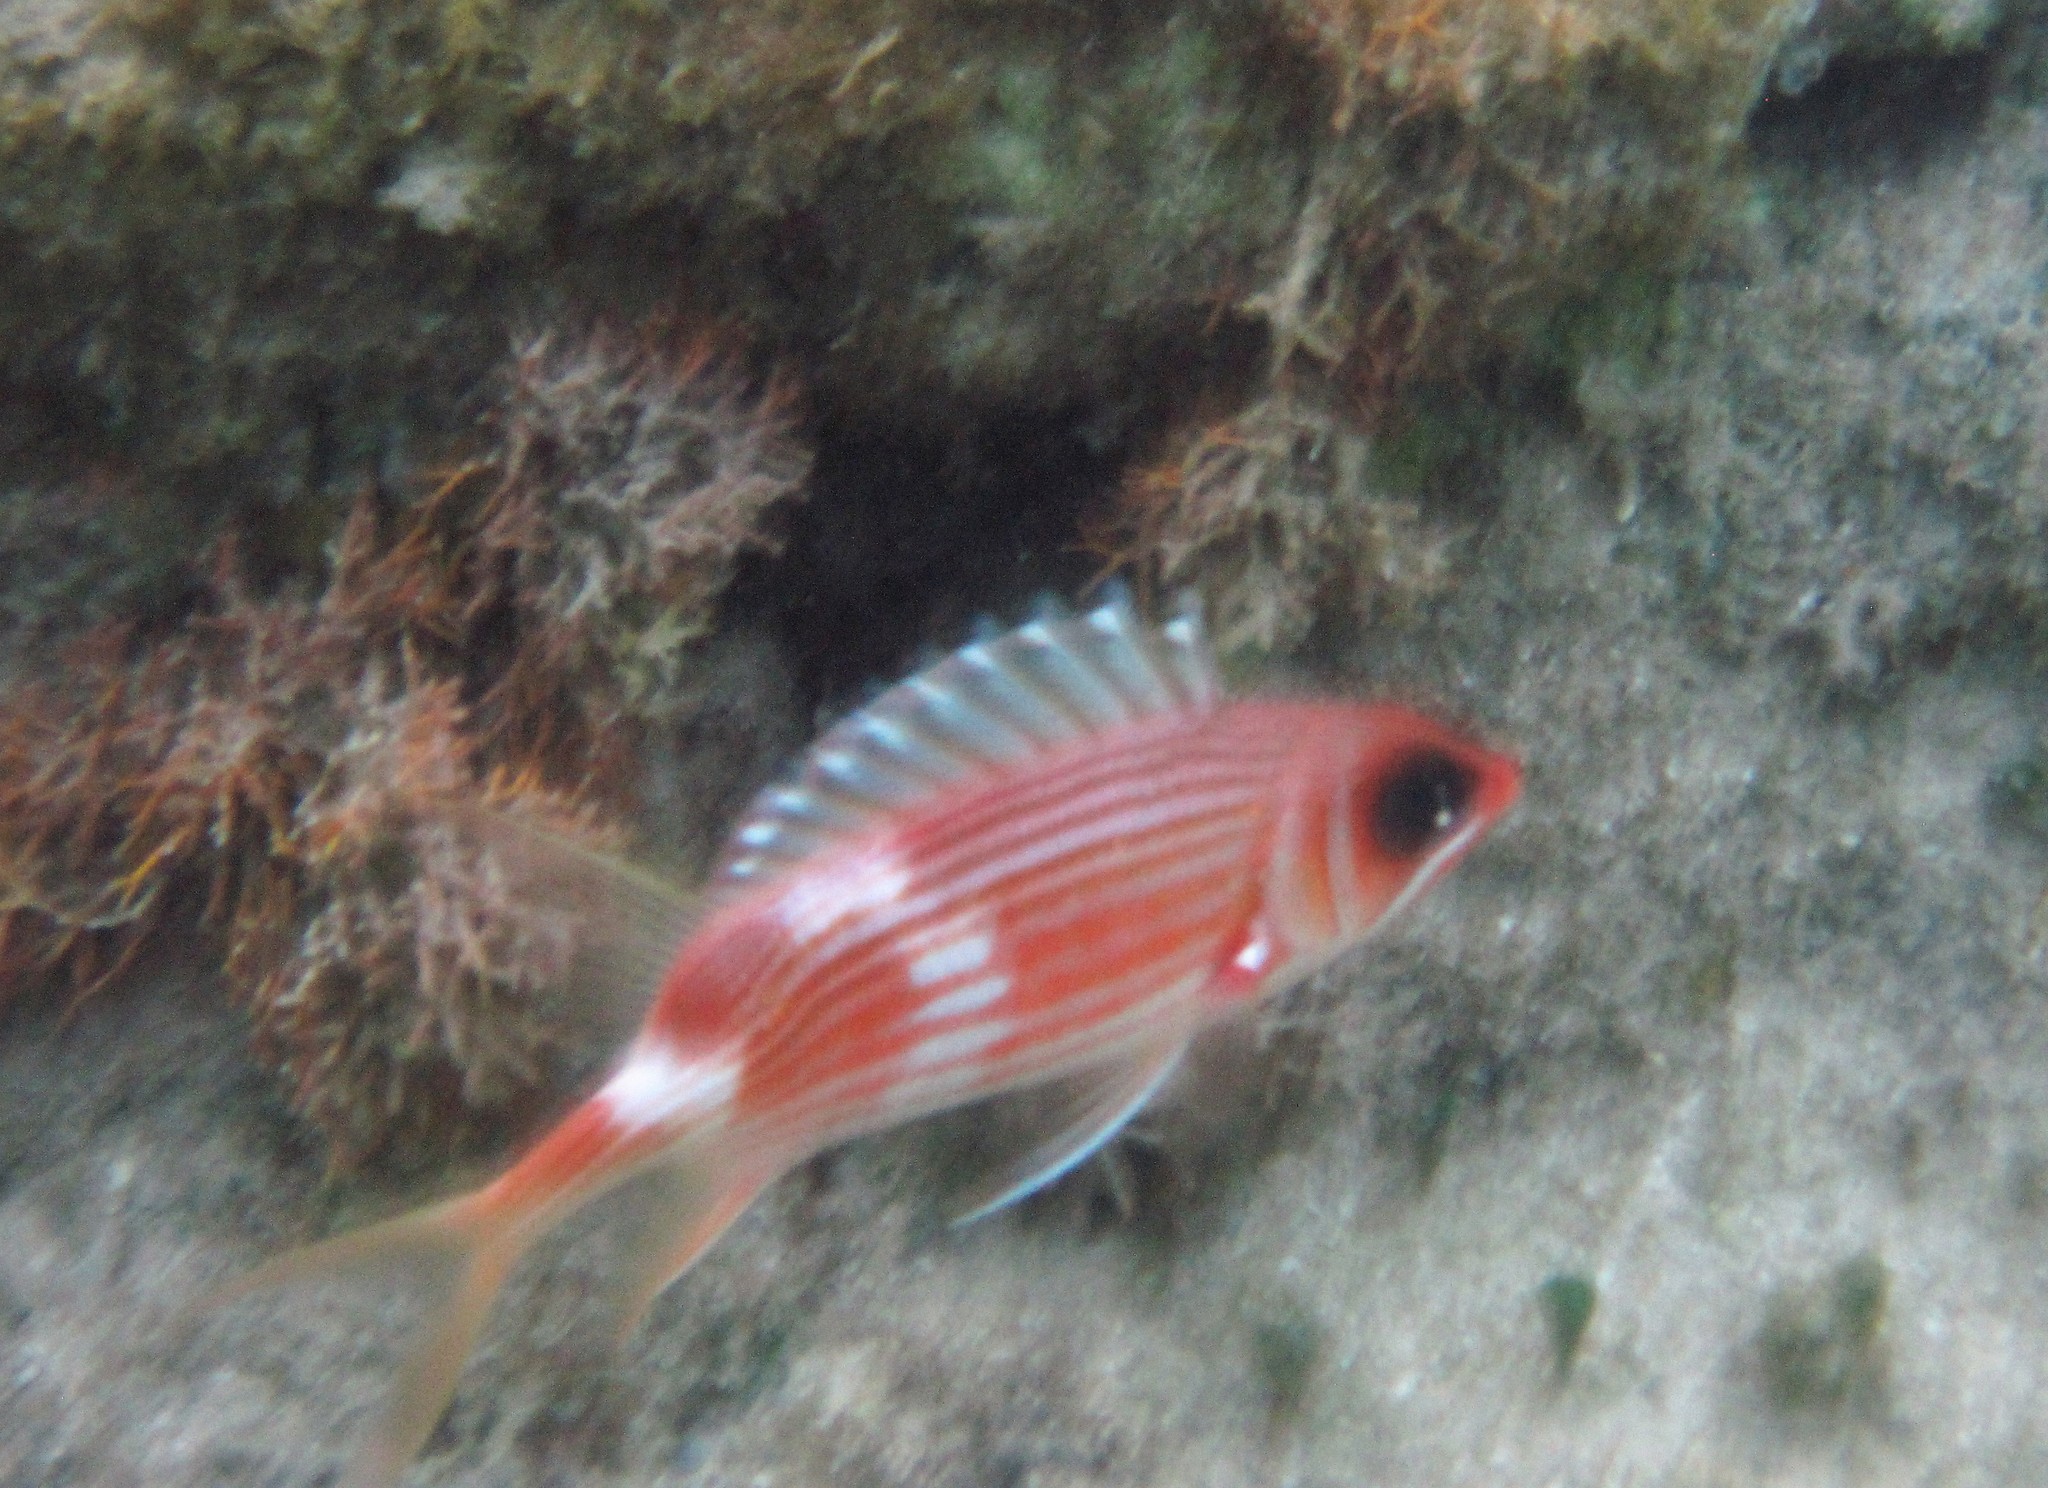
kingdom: Animalia
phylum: Chordata
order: Beryciformes
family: Holocentridae
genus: Holocentrus
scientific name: Holocentrus rufus
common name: Longspine squirrelfish
